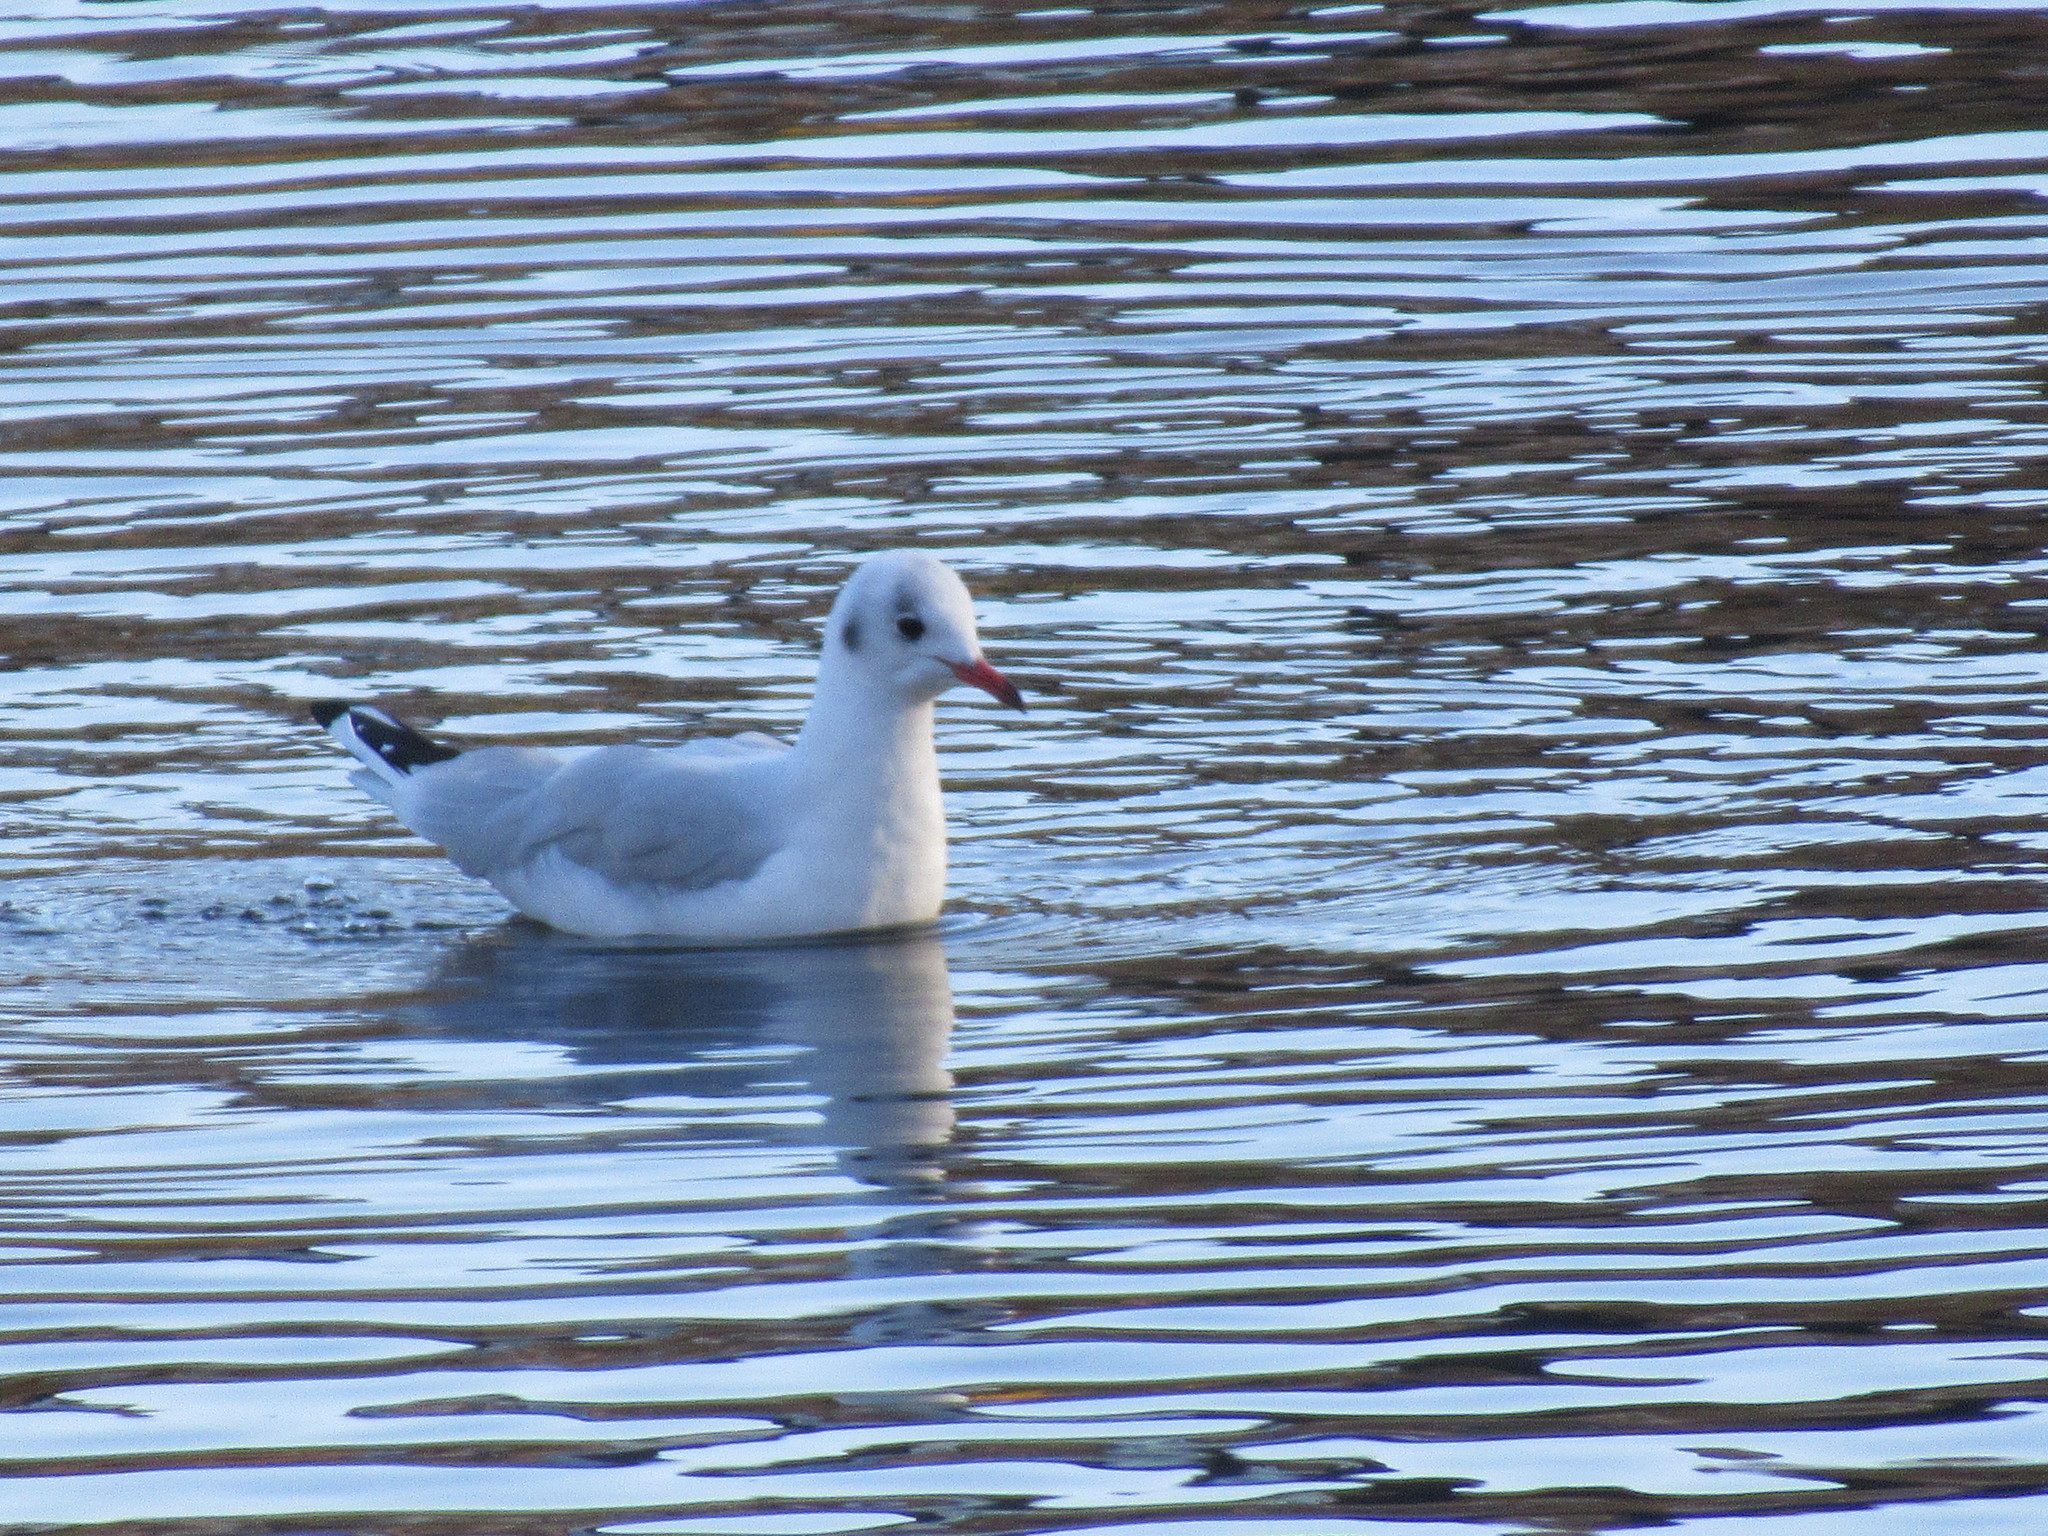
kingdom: Animalia
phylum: Chordata
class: Aves
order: Charadriiformes
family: Laridae
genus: Chroicocephalus
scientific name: Chroicocephalus ridibundus
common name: Black-headed gull
